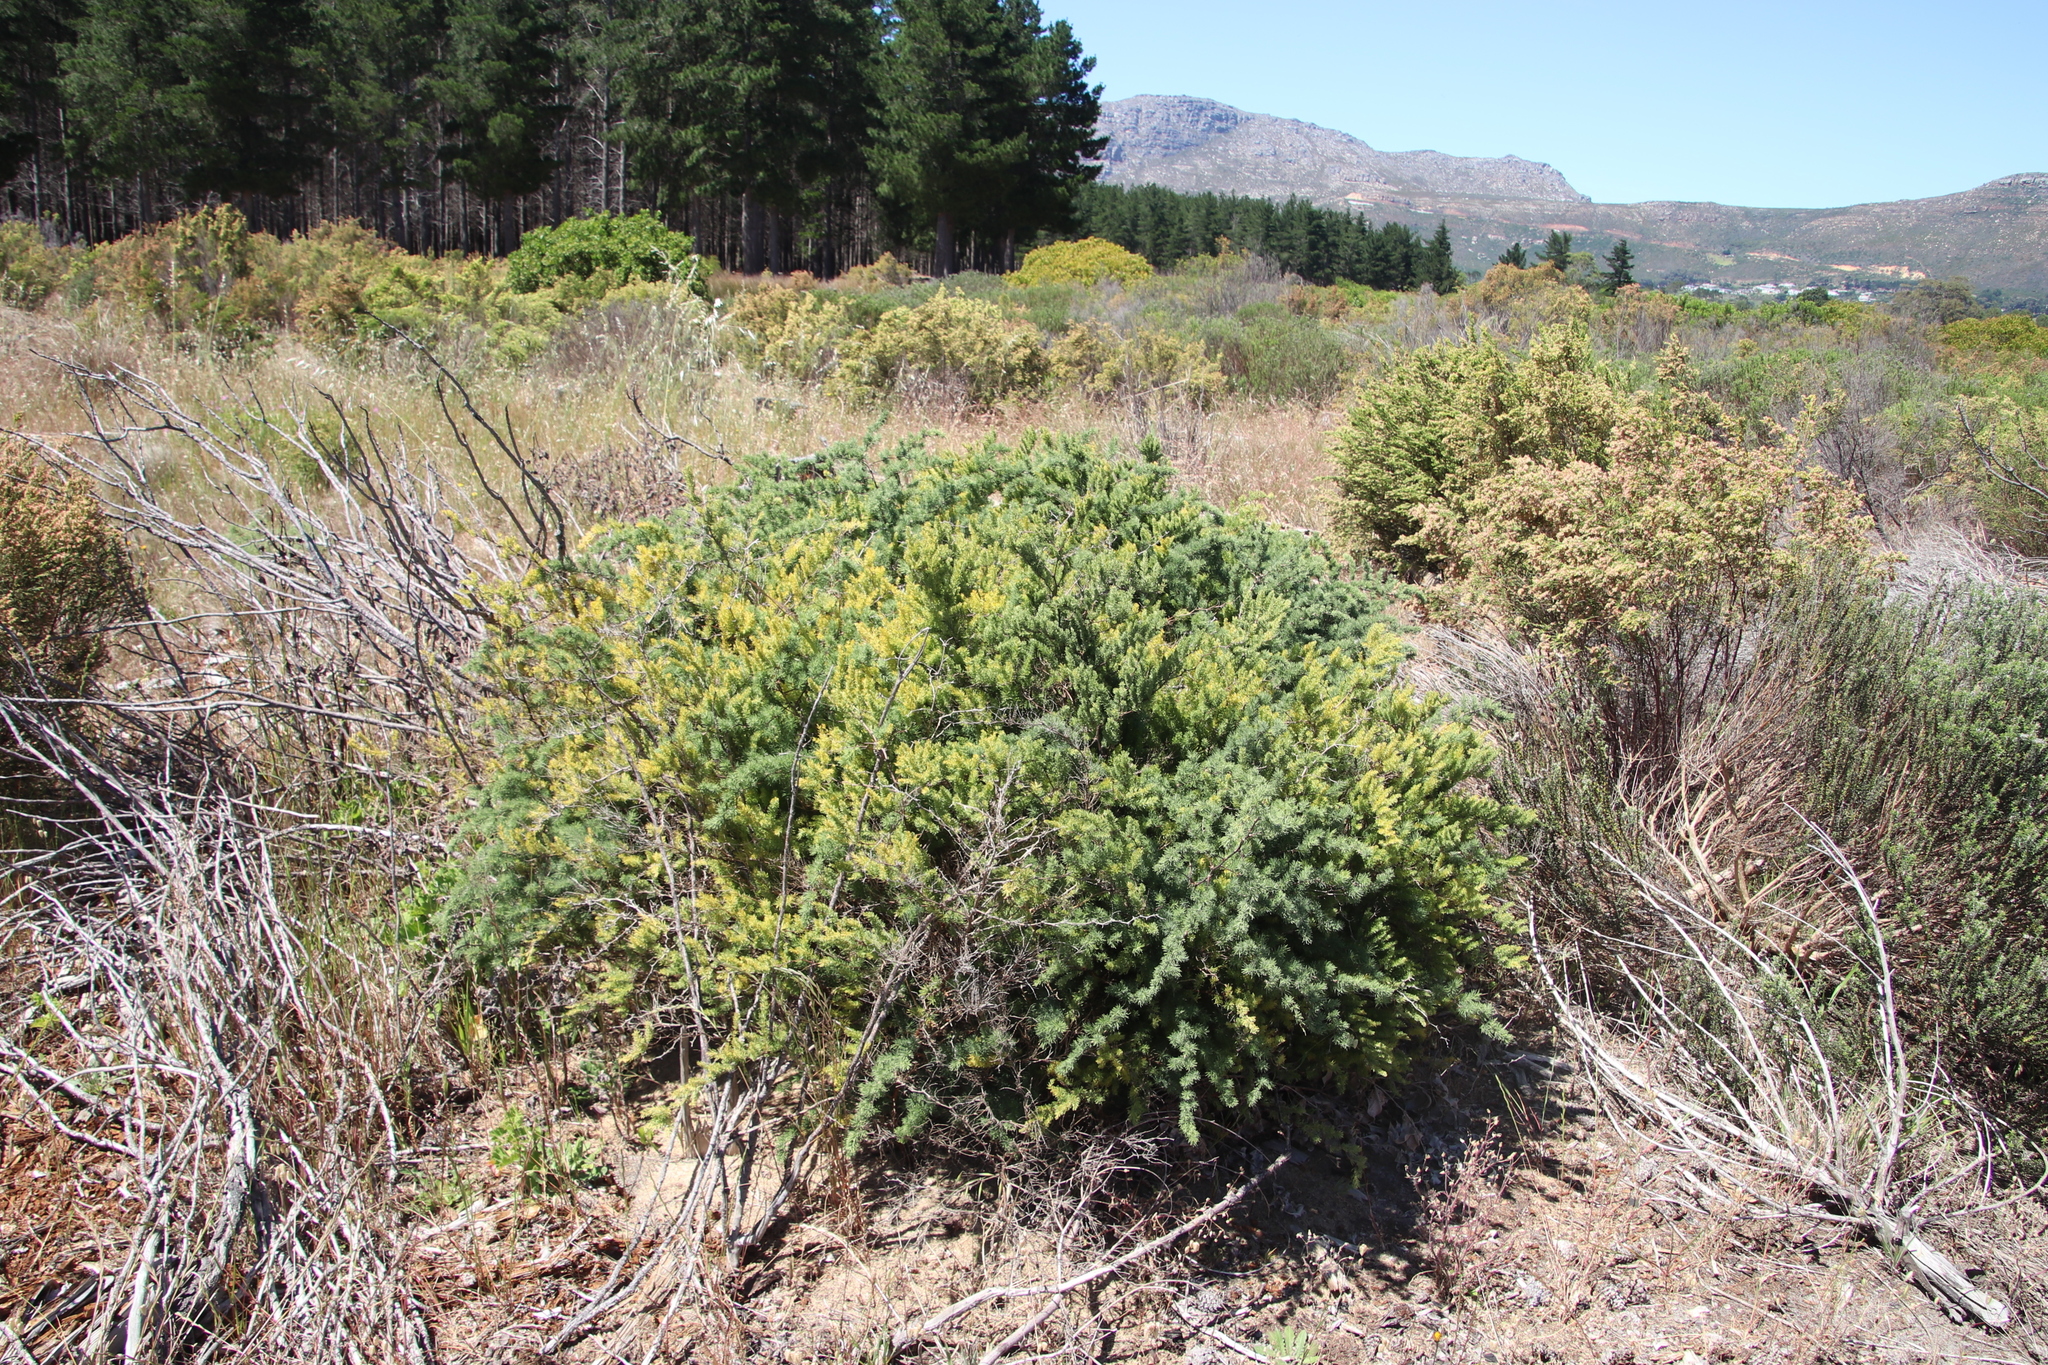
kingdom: Plantae
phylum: Tracheophyta
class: Liliopsida
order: Asparagales
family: Asparagaceae
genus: Asparagus
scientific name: Asparagus rubicundus
